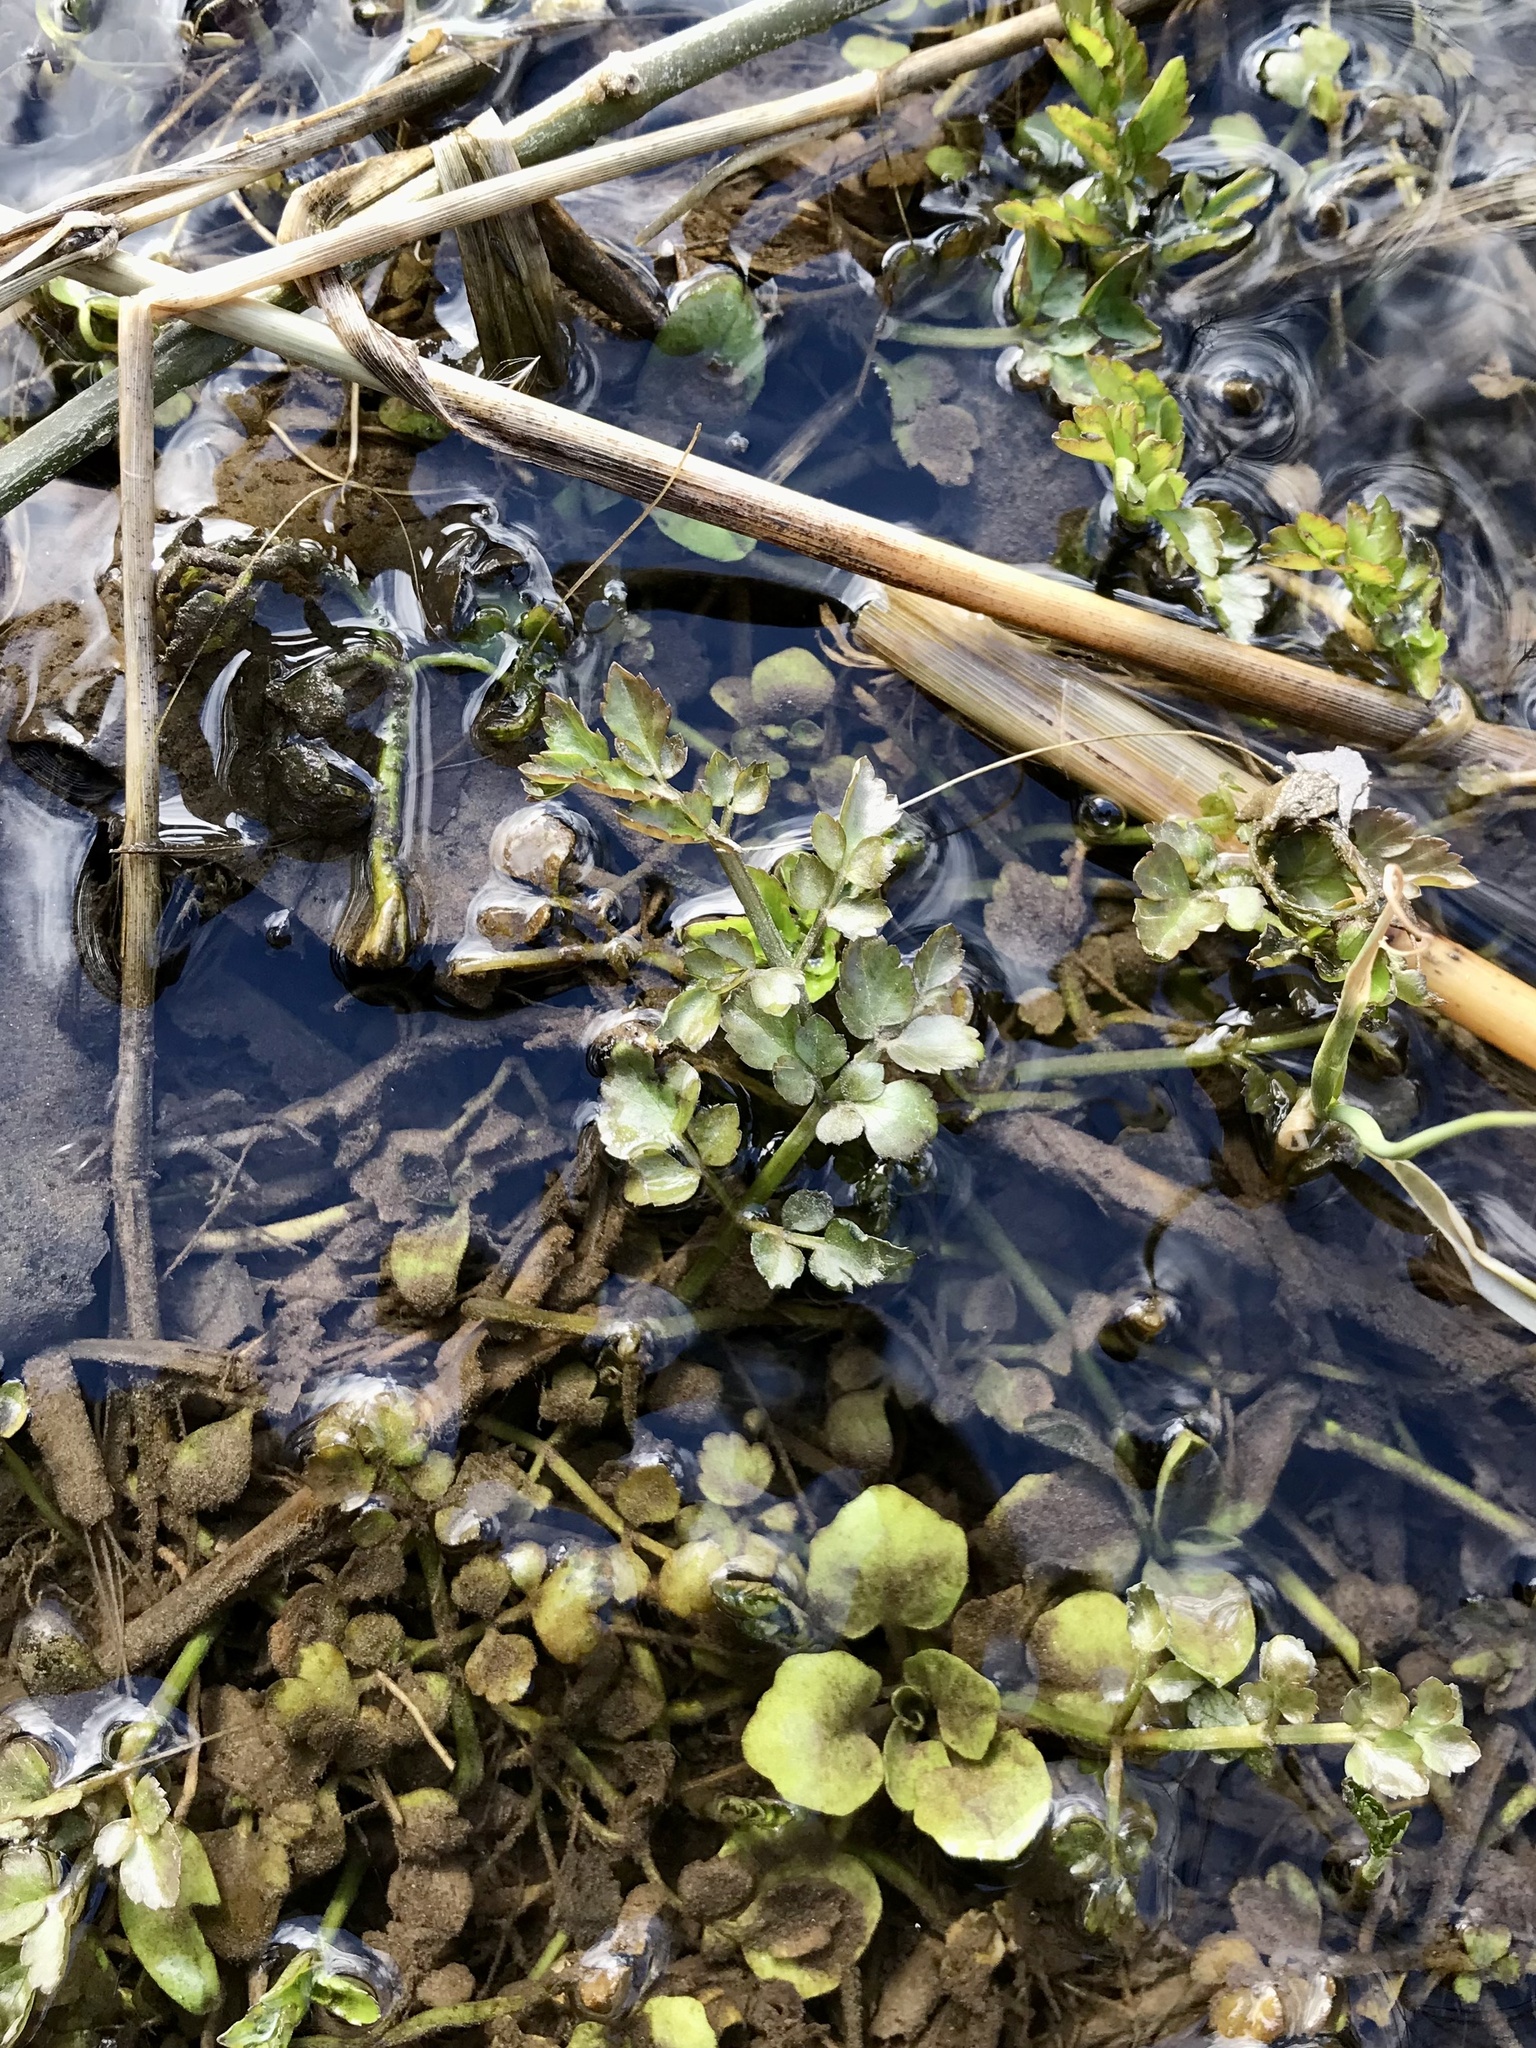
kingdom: Plantae
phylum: Tracheophyta
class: Magnoliopsida
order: Apiales
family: Apiaceae
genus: Oenanthe
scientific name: Oenanthe javanica
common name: Java water-dropwort
